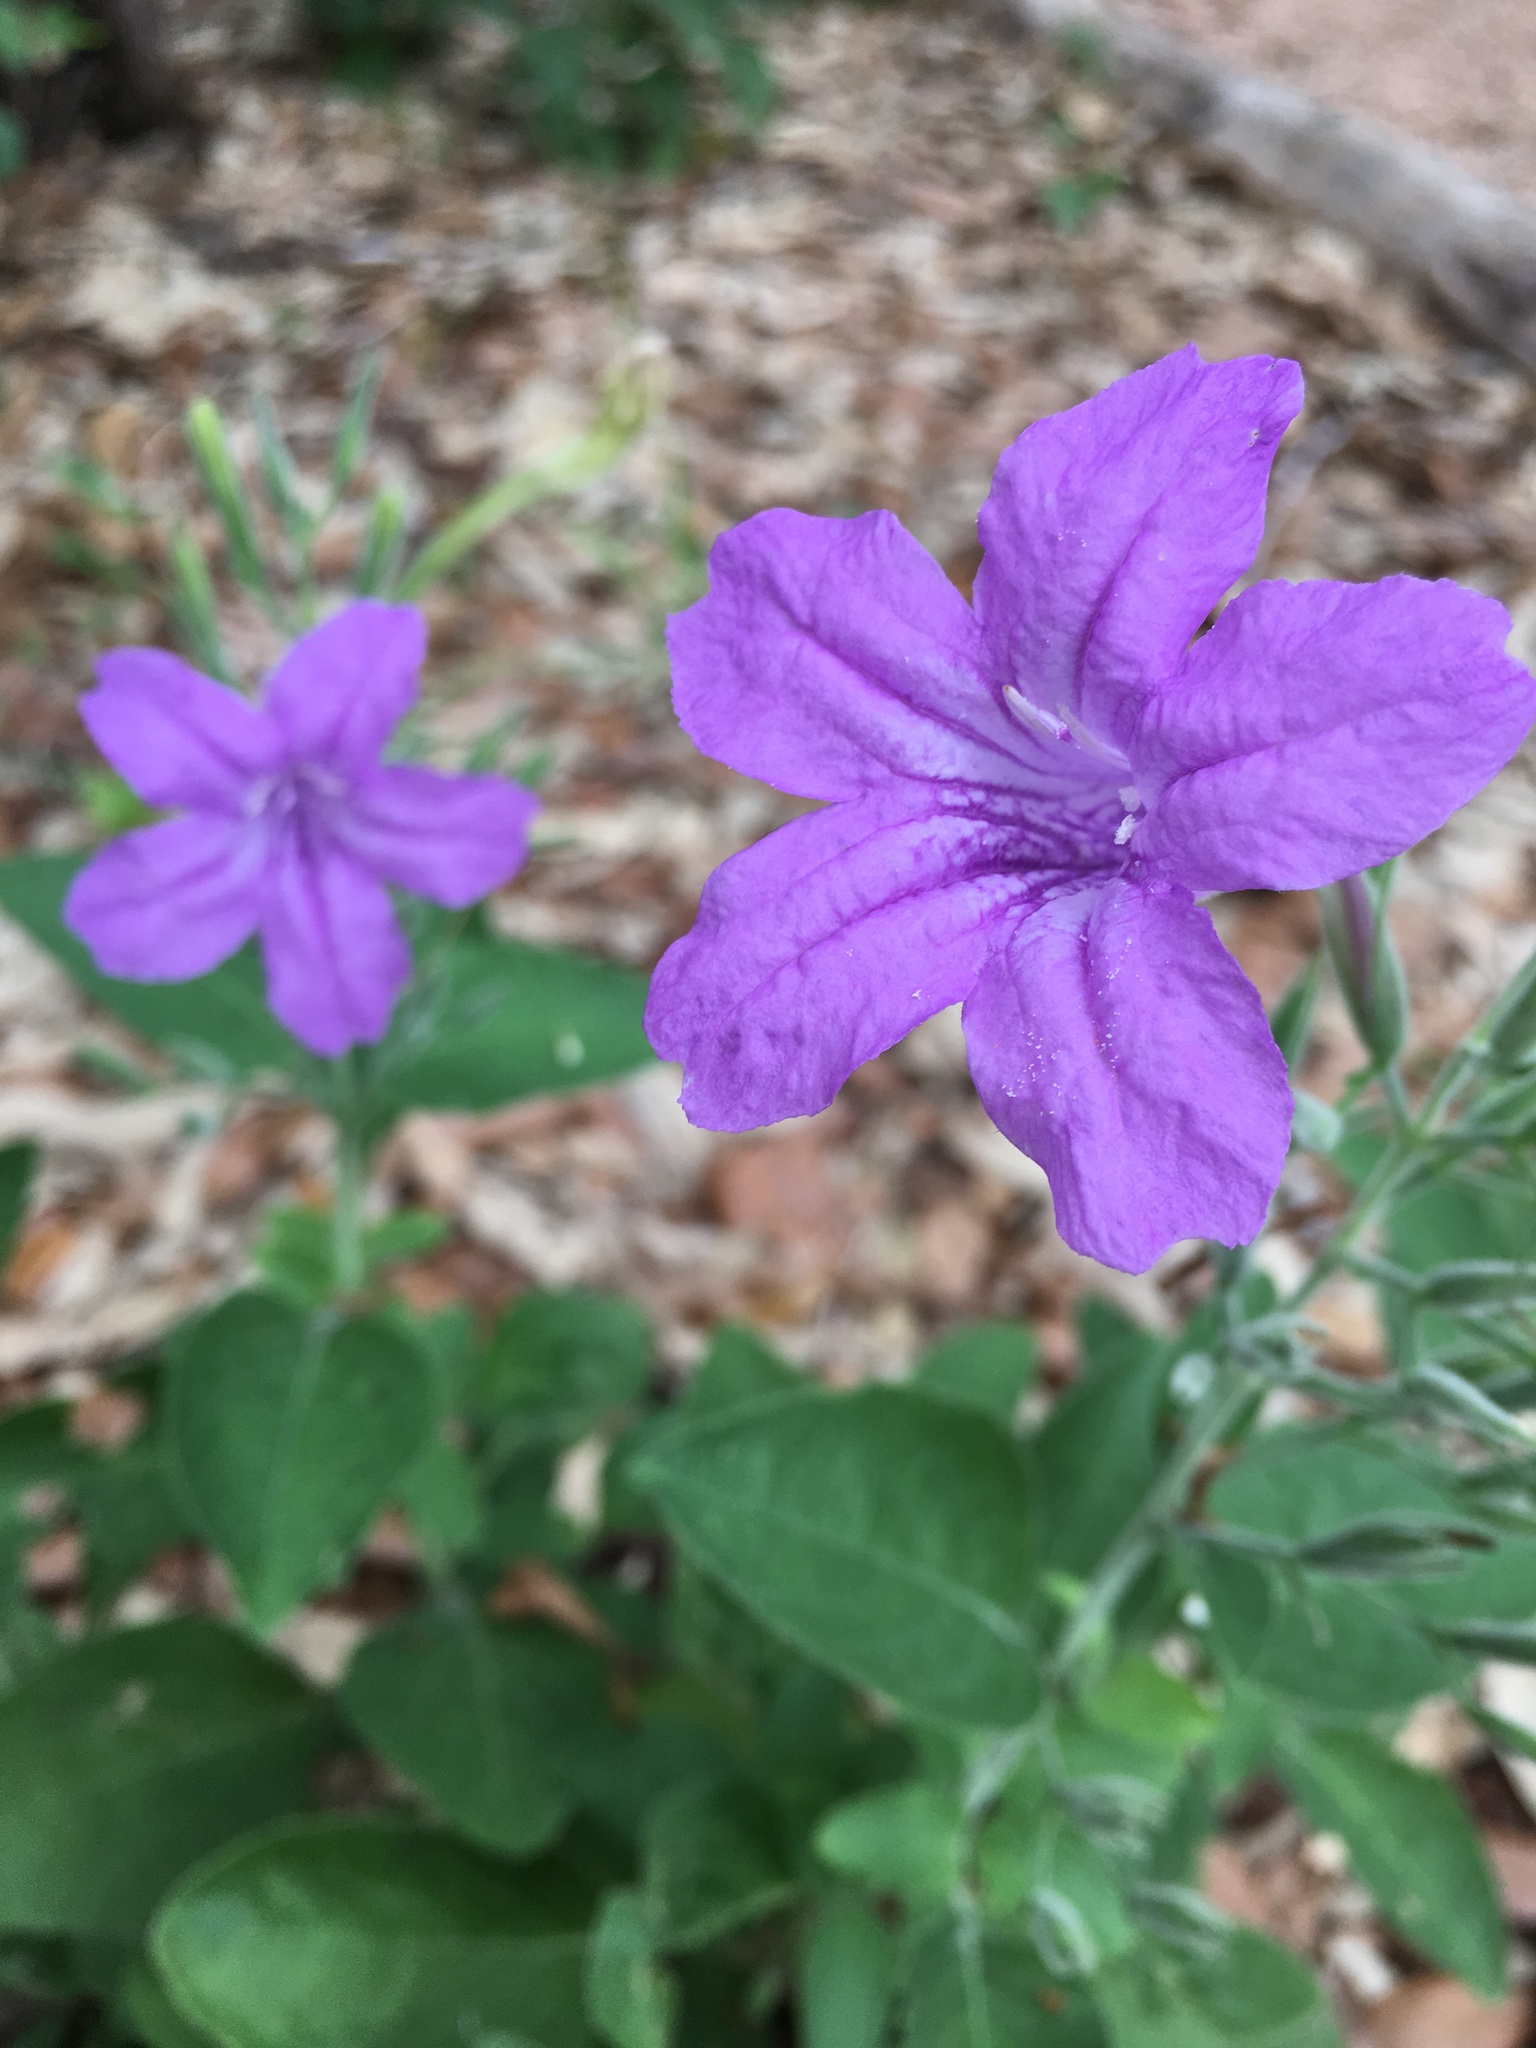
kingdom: Plantae
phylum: Tracheophyta
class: Magnoliopsida
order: Lamiales
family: Acanthaceae
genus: Ruellia
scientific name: Ruellia ciliatiflora
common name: Hairyflower wild petunia
